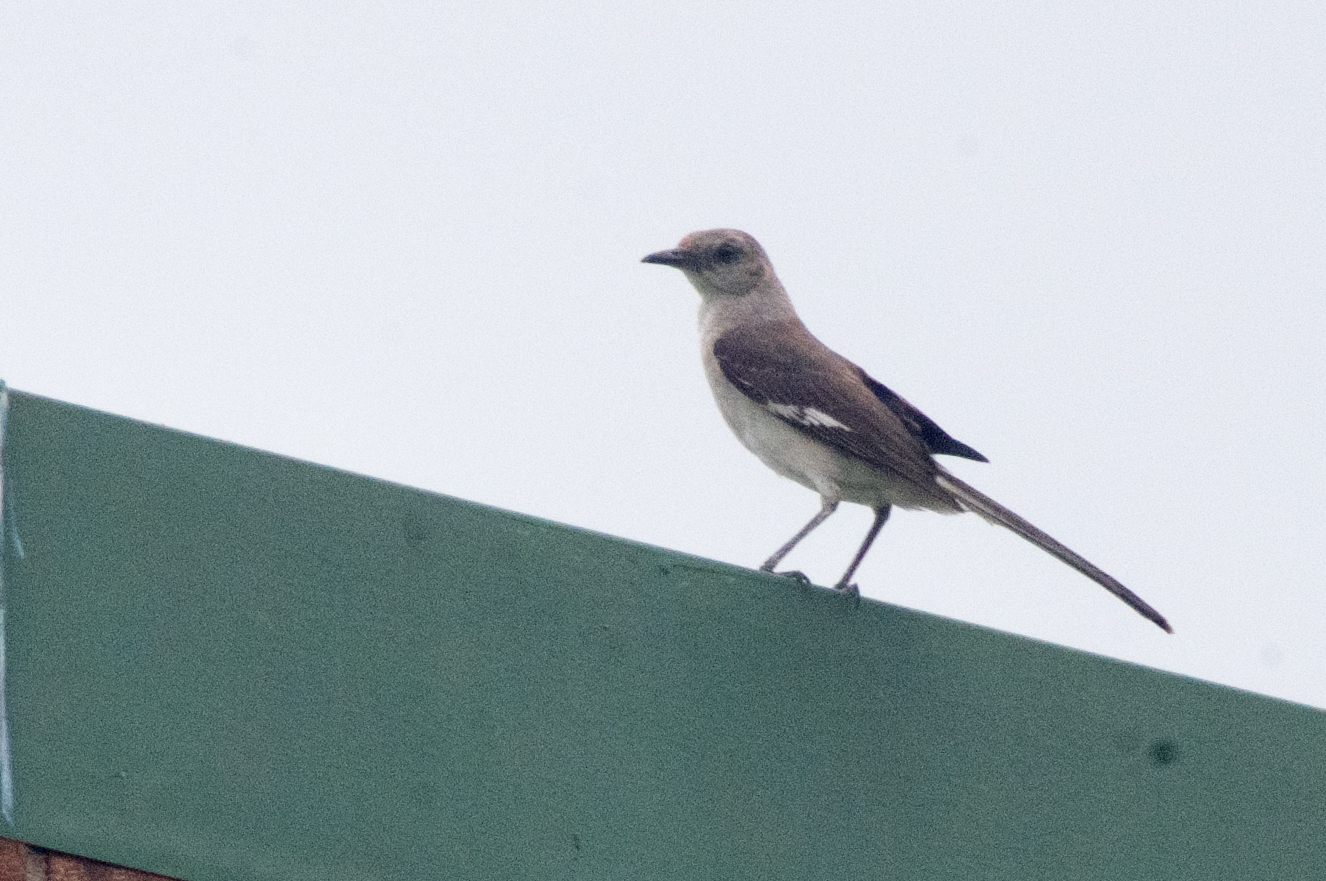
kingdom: Animalia
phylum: Chordata
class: Aves
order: Passeriformes
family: Mimidae
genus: Mimus
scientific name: Mimus polyglottos
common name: Northern mockingbird
